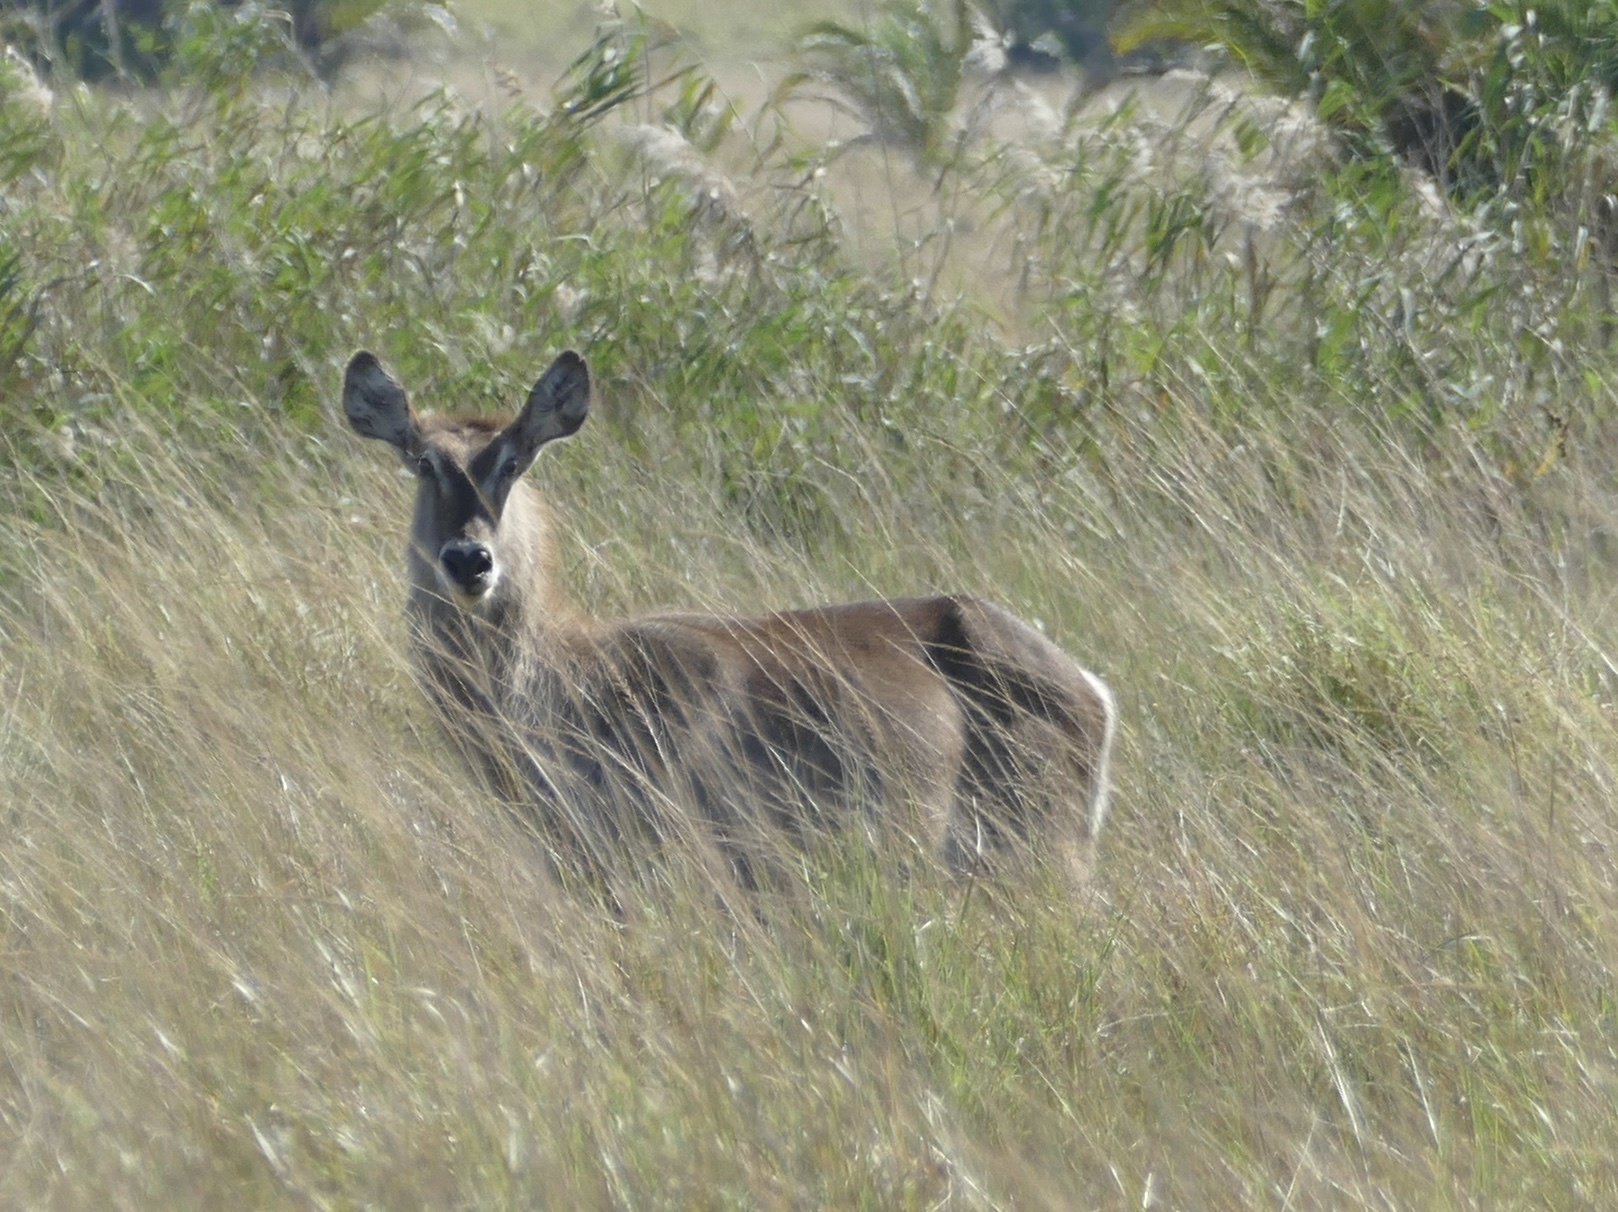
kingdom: Animalia
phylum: Chordata
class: Mammalia
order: Artiodactyla
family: Bovidae
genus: Kobus
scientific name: Kobus ellipsiprymnus
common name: Waterbuck
